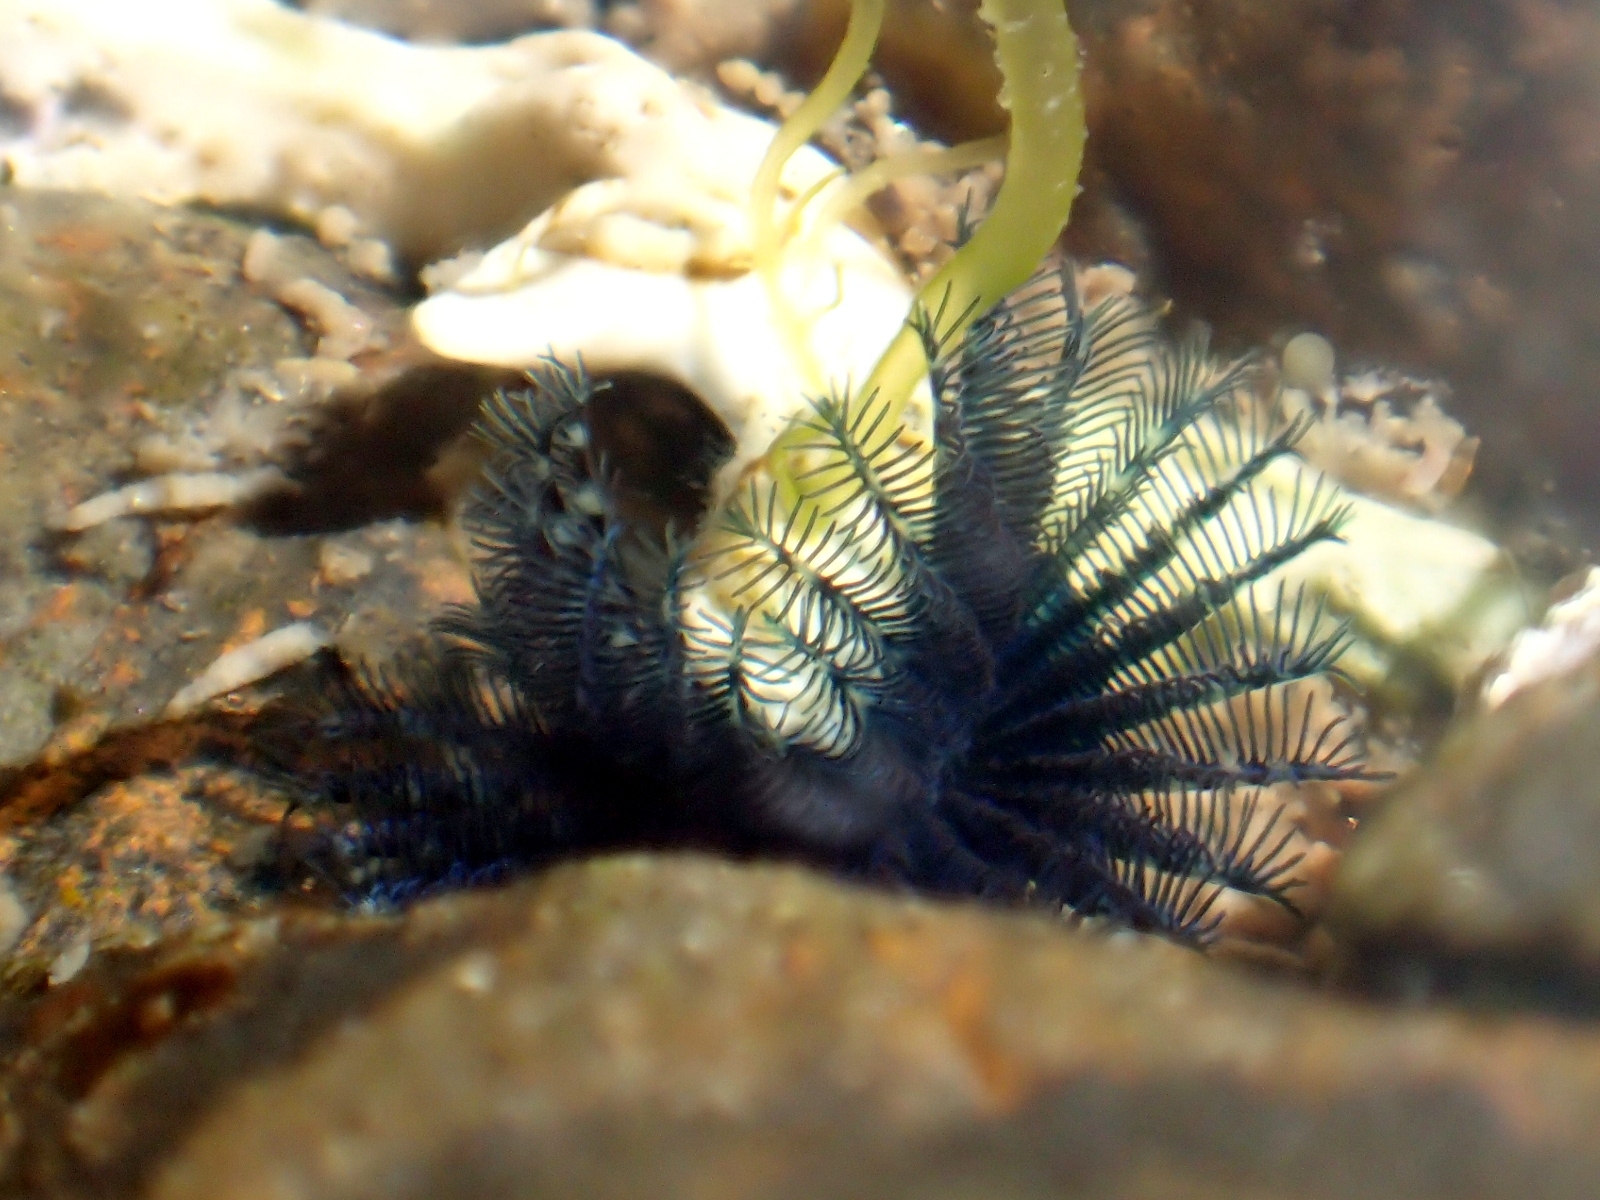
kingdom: Animalia
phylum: Annelida
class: Polychaeta
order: Sabellida
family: Serpulidae
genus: Spirobranchus
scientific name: Spirobranchus cariniferus
